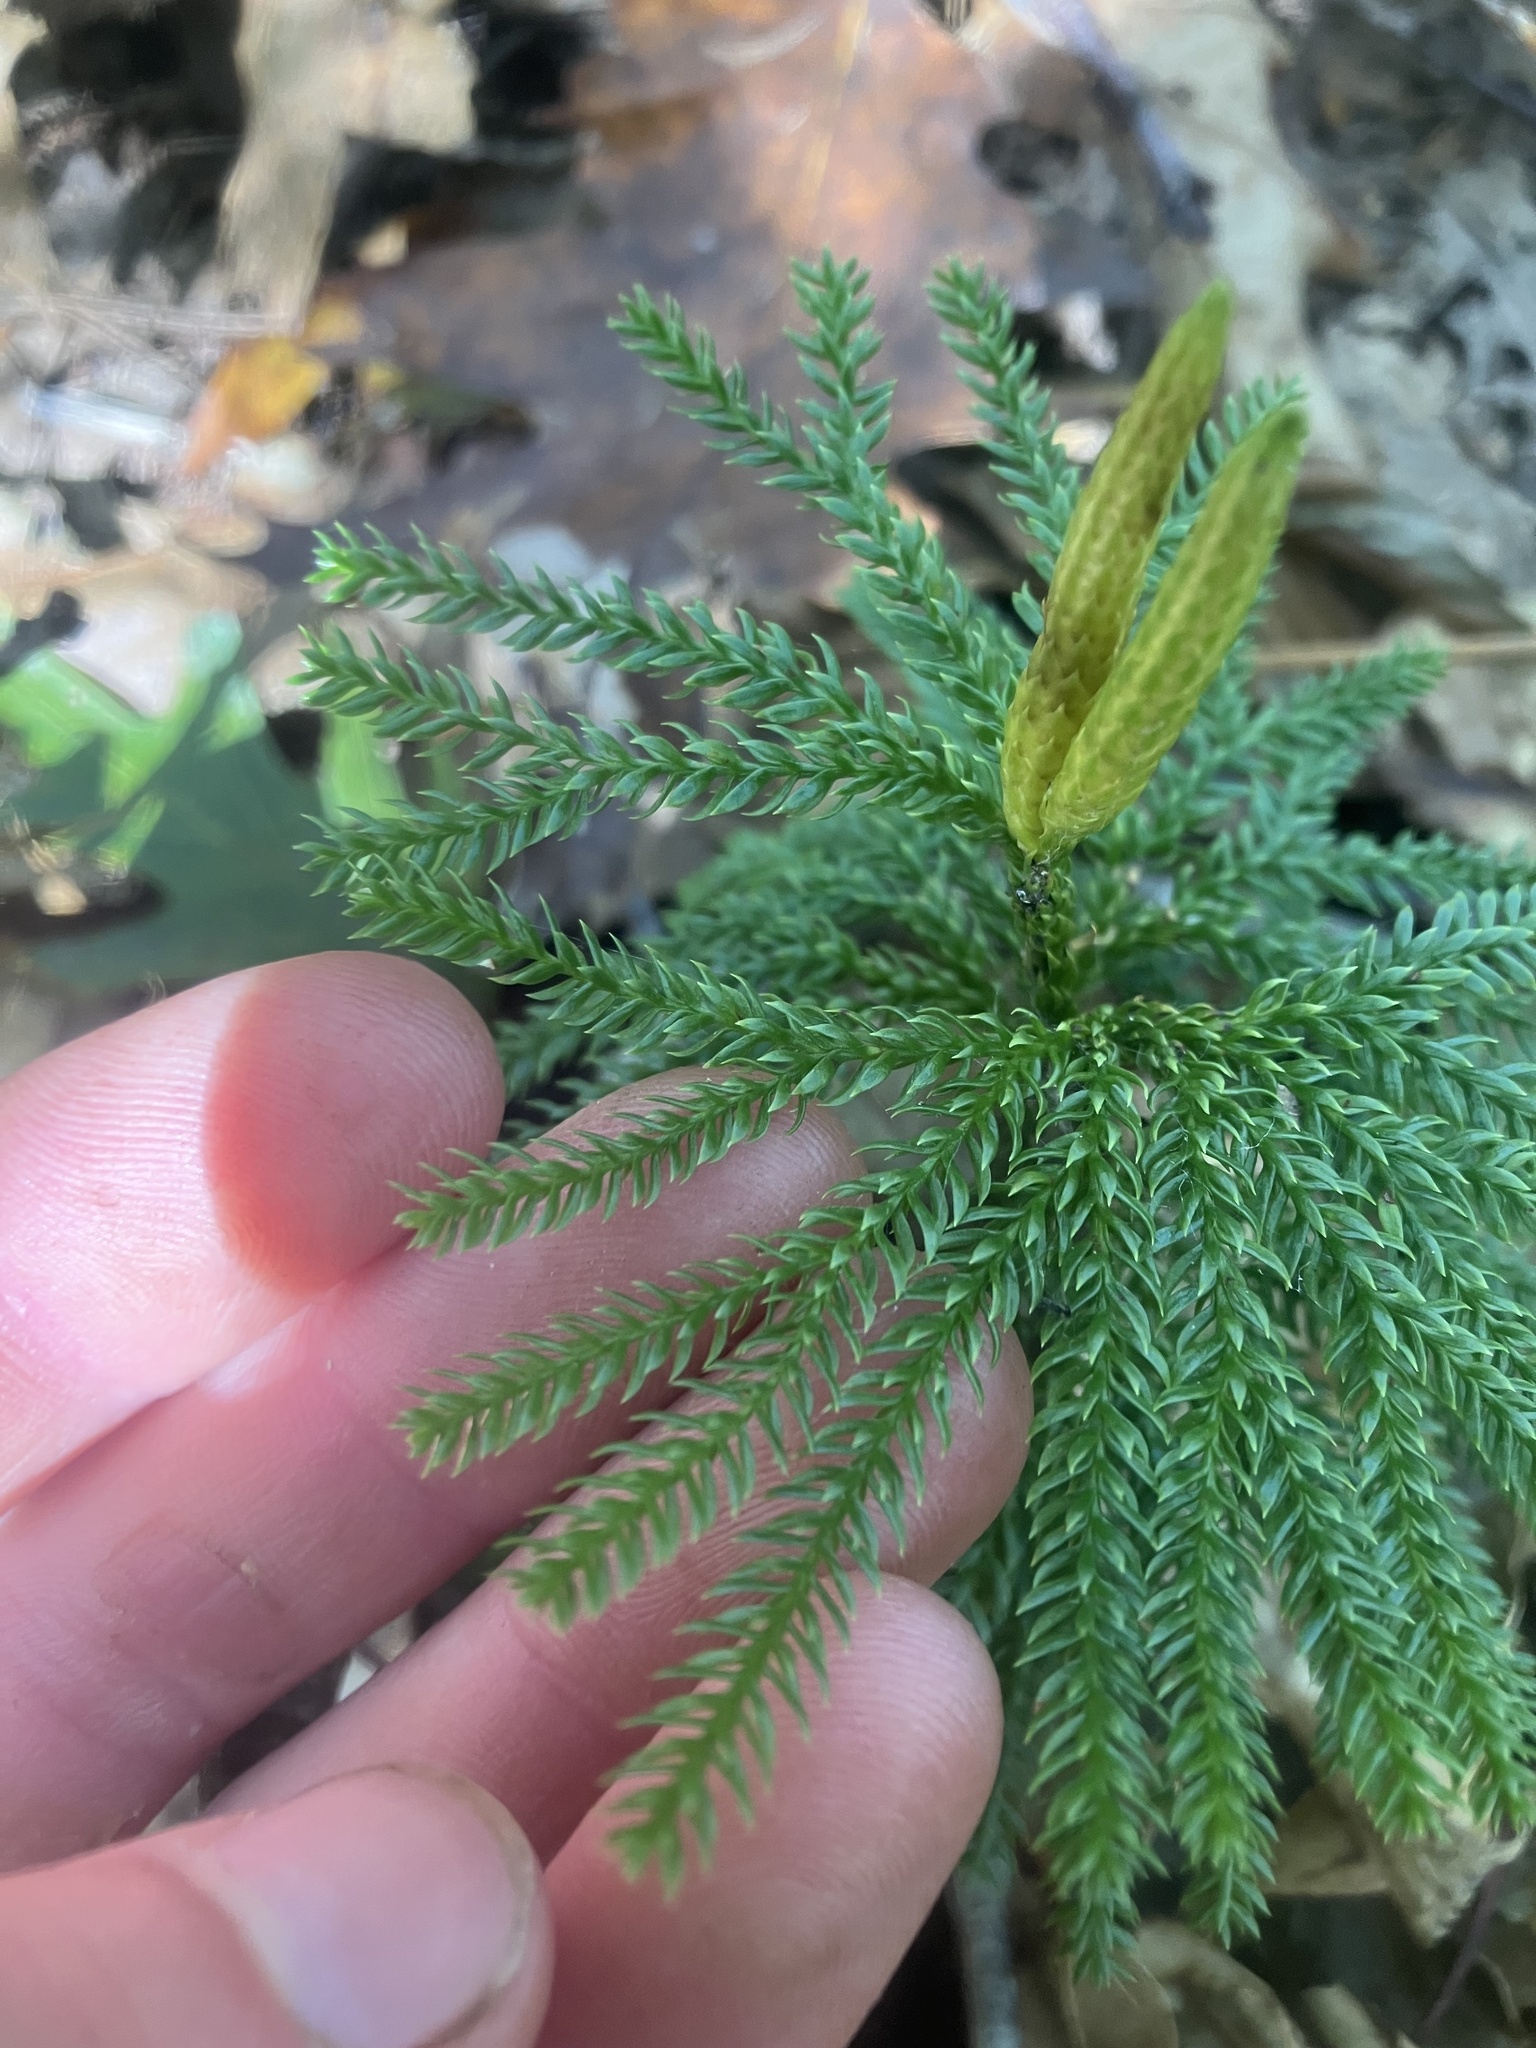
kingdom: Plantae
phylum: Tracheophyta
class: Lycopodiopsida
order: Lycopodiales
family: Lycopodiaceae
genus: Dendrolycopodium
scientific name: Dendrolycopodium obscurum
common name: Common ground-pine
